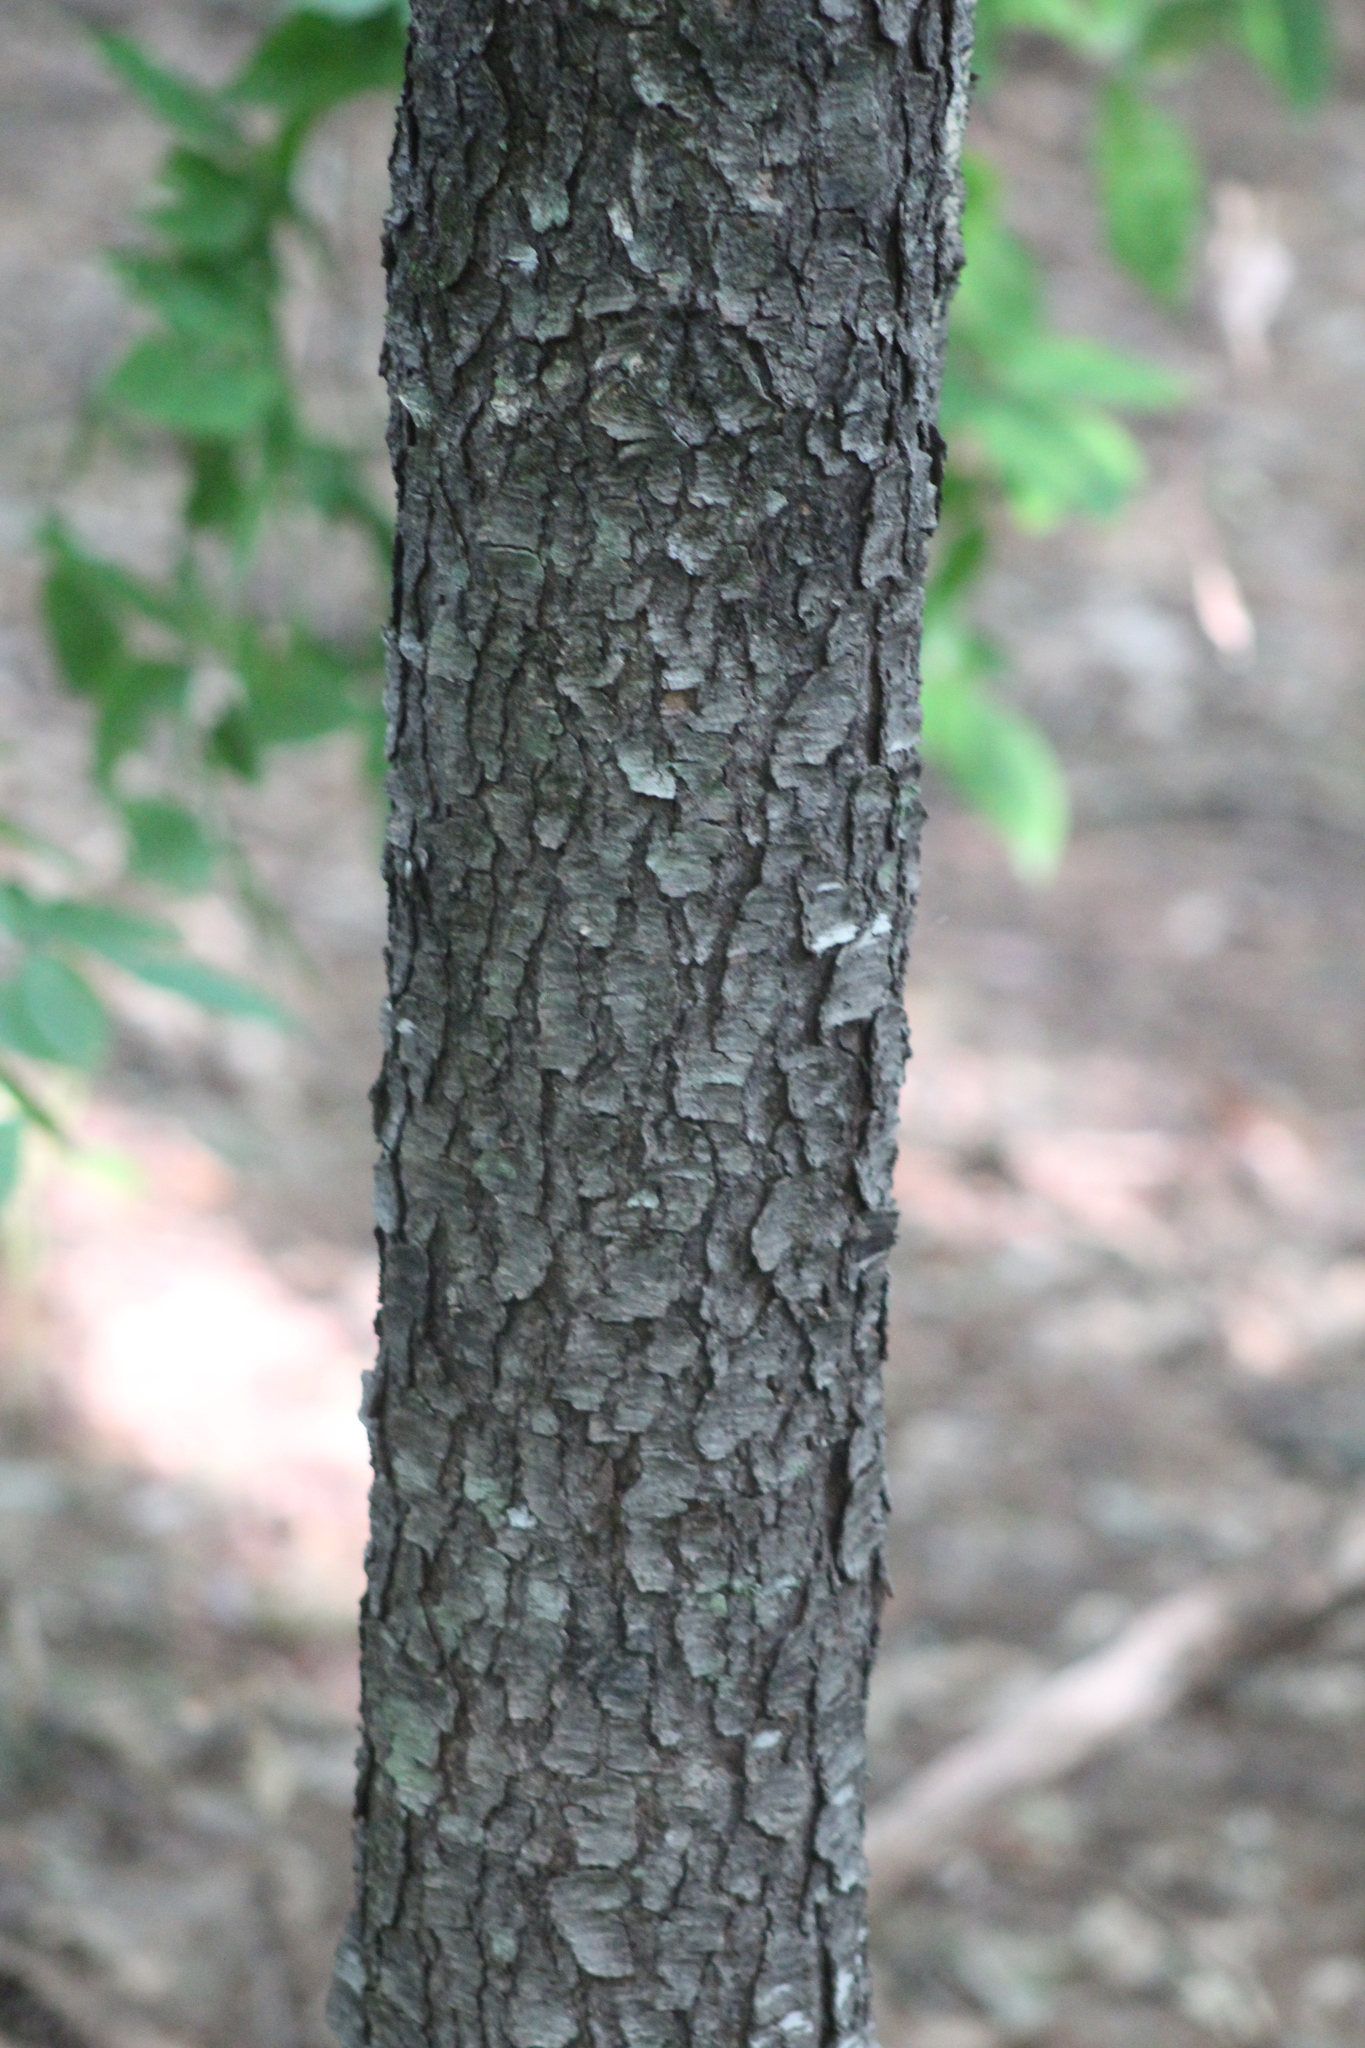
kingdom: Plantae
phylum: Tracheophyta
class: Magnoliopsida
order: Rosales
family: Rosaceae
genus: Prunus
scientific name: Prunus serotina
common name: Black cherry
